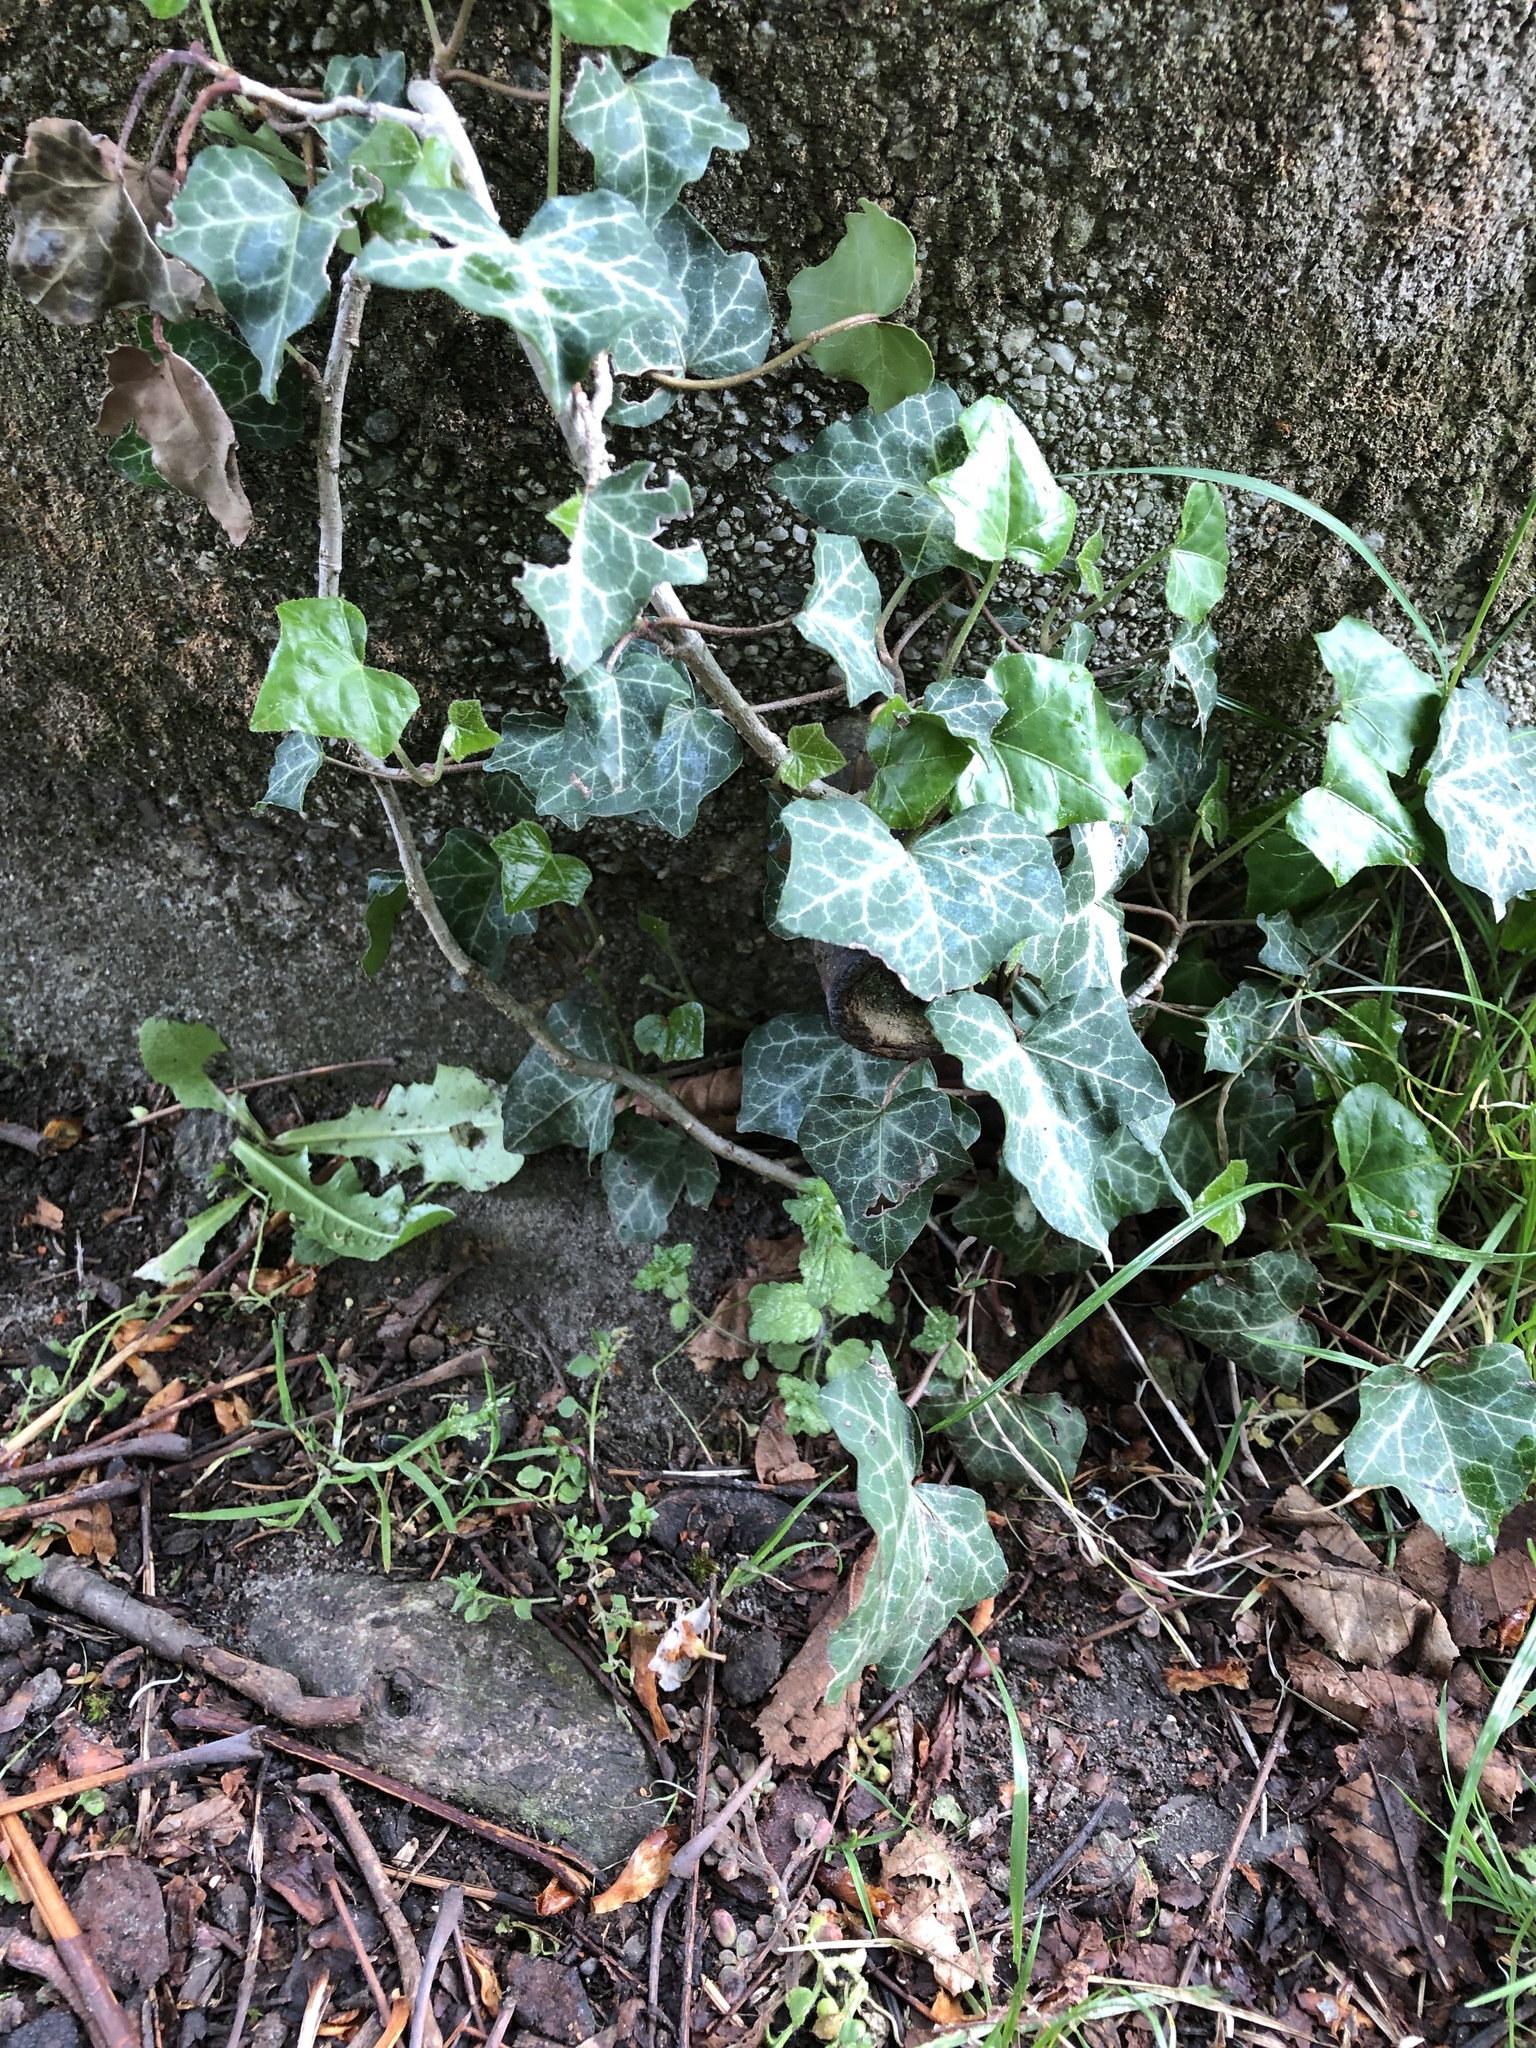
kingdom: Plantae
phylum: Tracheophyta
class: Magnoliopsida
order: Apiales
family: Araliaceae
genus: Hedera
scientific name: Hedera helix
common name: Ivy
